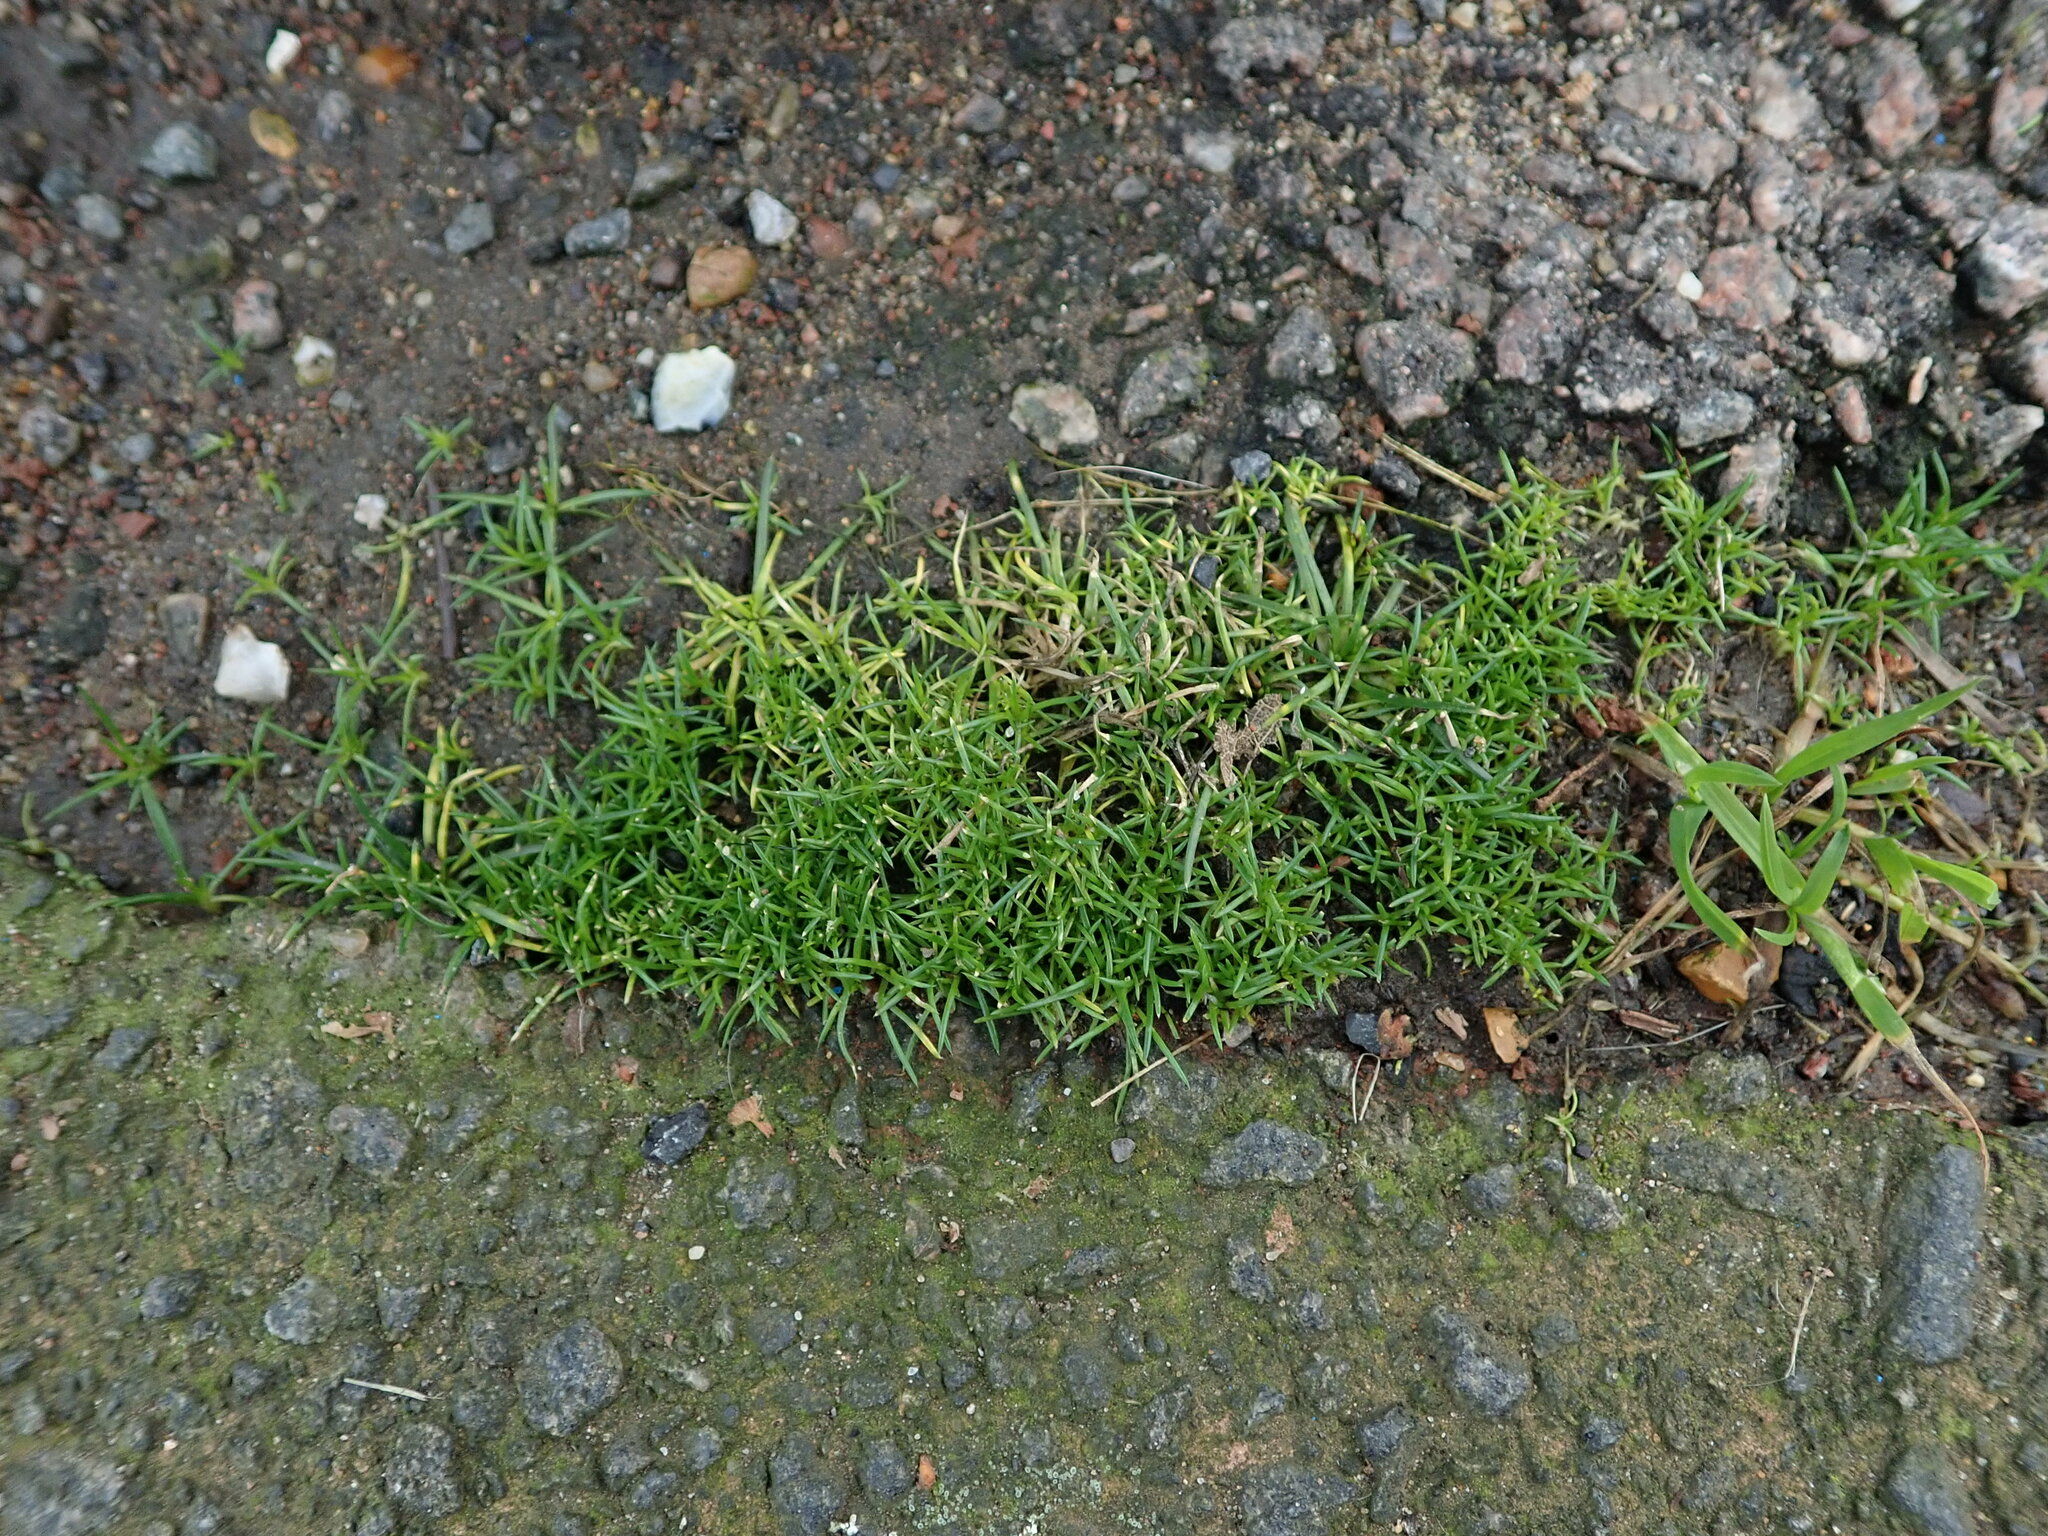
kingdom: Plantae
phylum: Tracheophyta
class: Magnoliopsida
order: Caryophyllales
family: Caryophyllaceae
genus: Sagina
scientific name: Sagina procumbens
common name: Procumbent pearlwort
